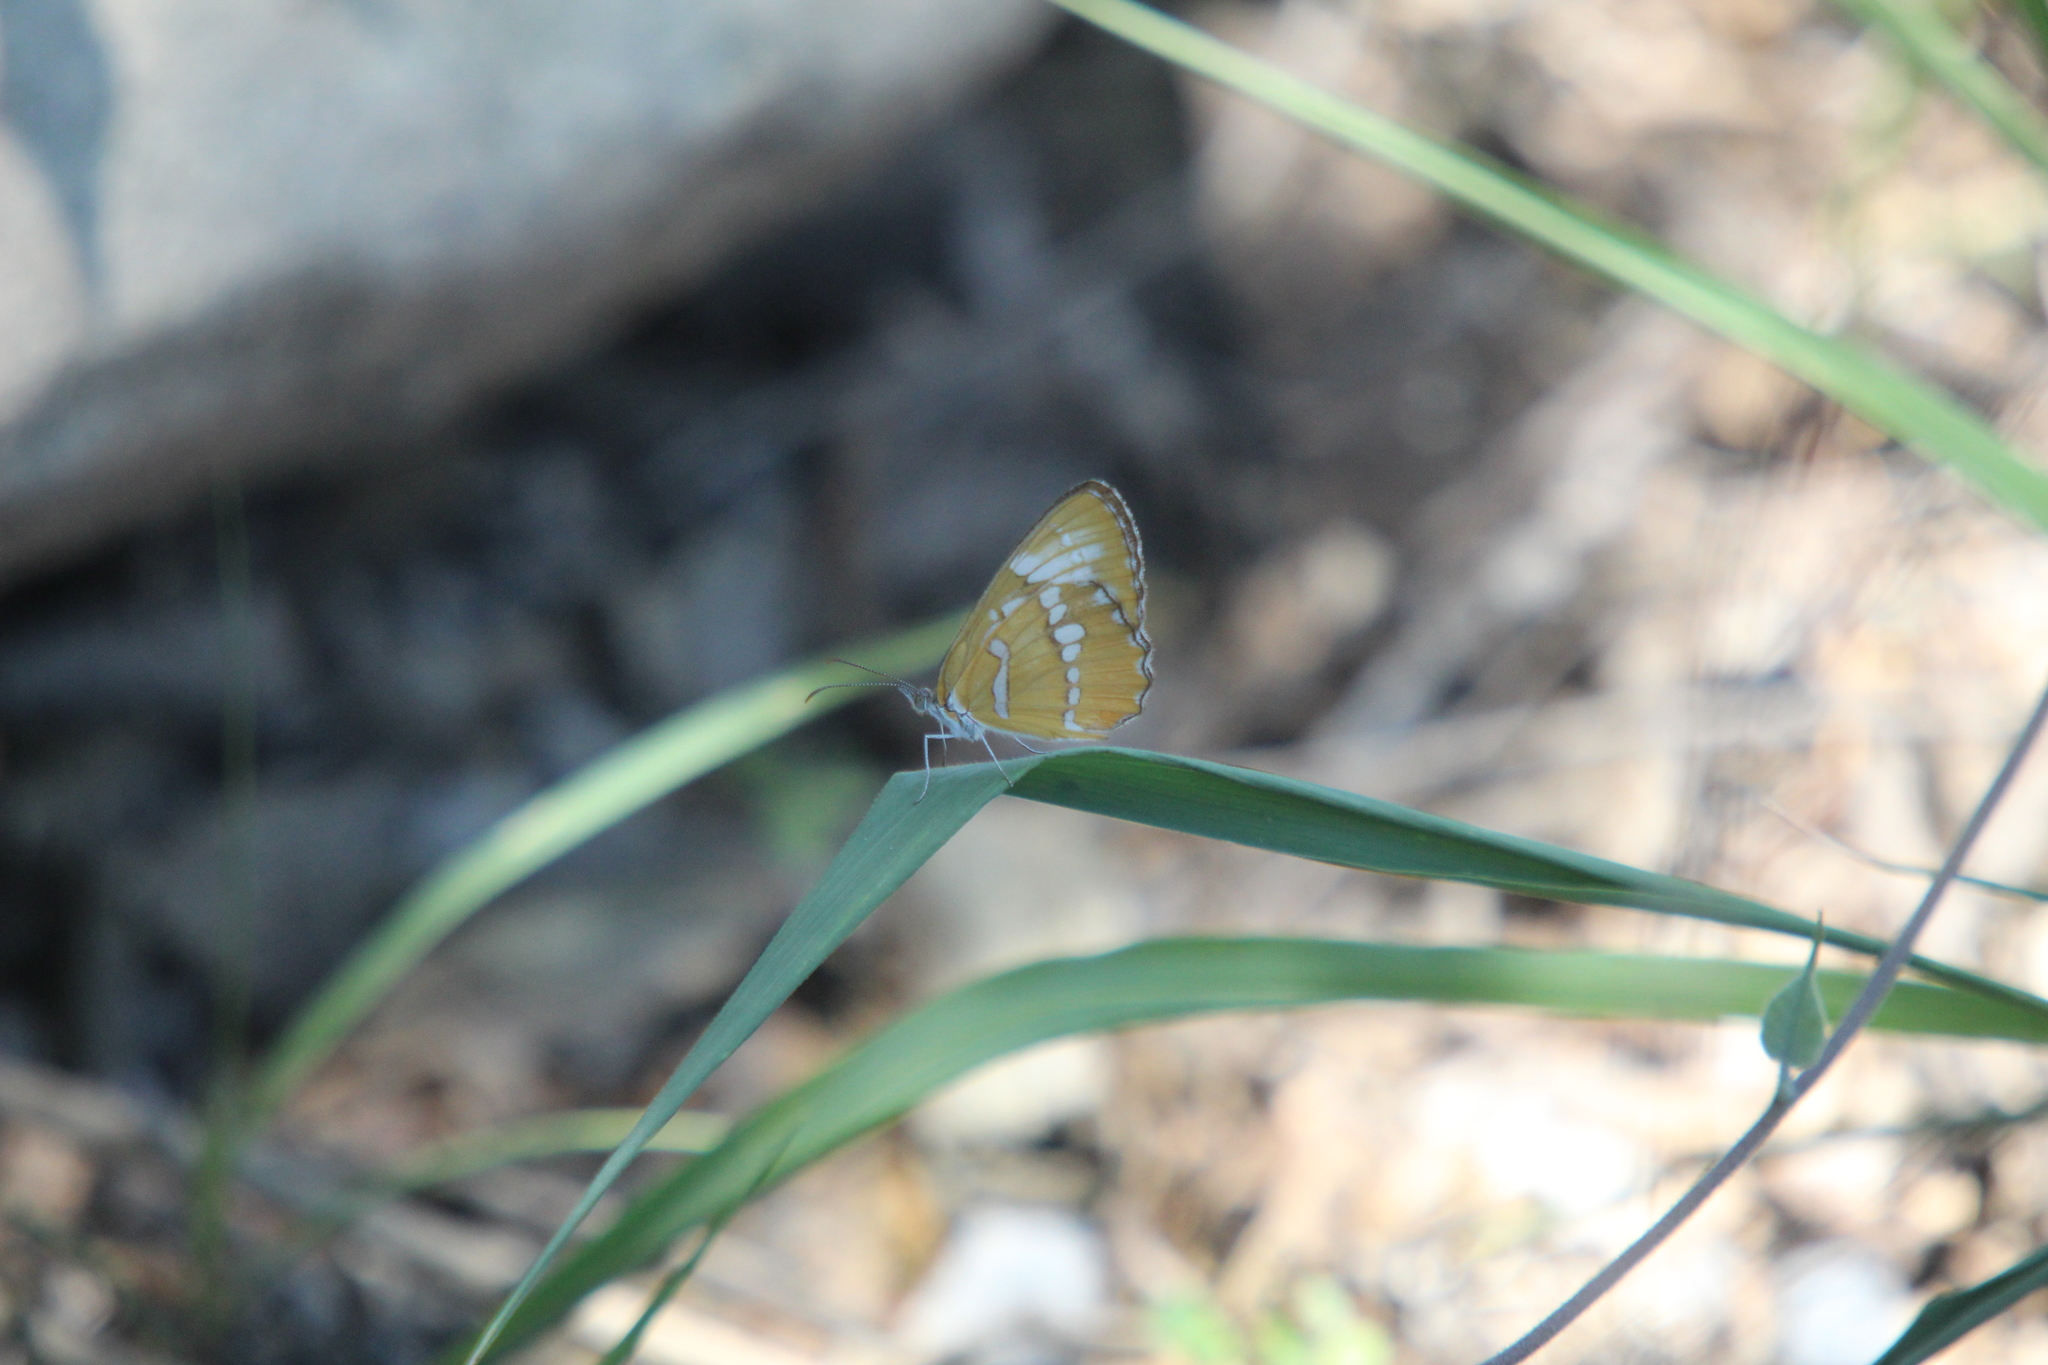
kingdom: Animalia
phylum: Arthropoda
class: Insecta
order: Lepidoptera
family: Nymphalidae
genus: Mestra
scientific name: Mestra amymone
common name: Common mestra
